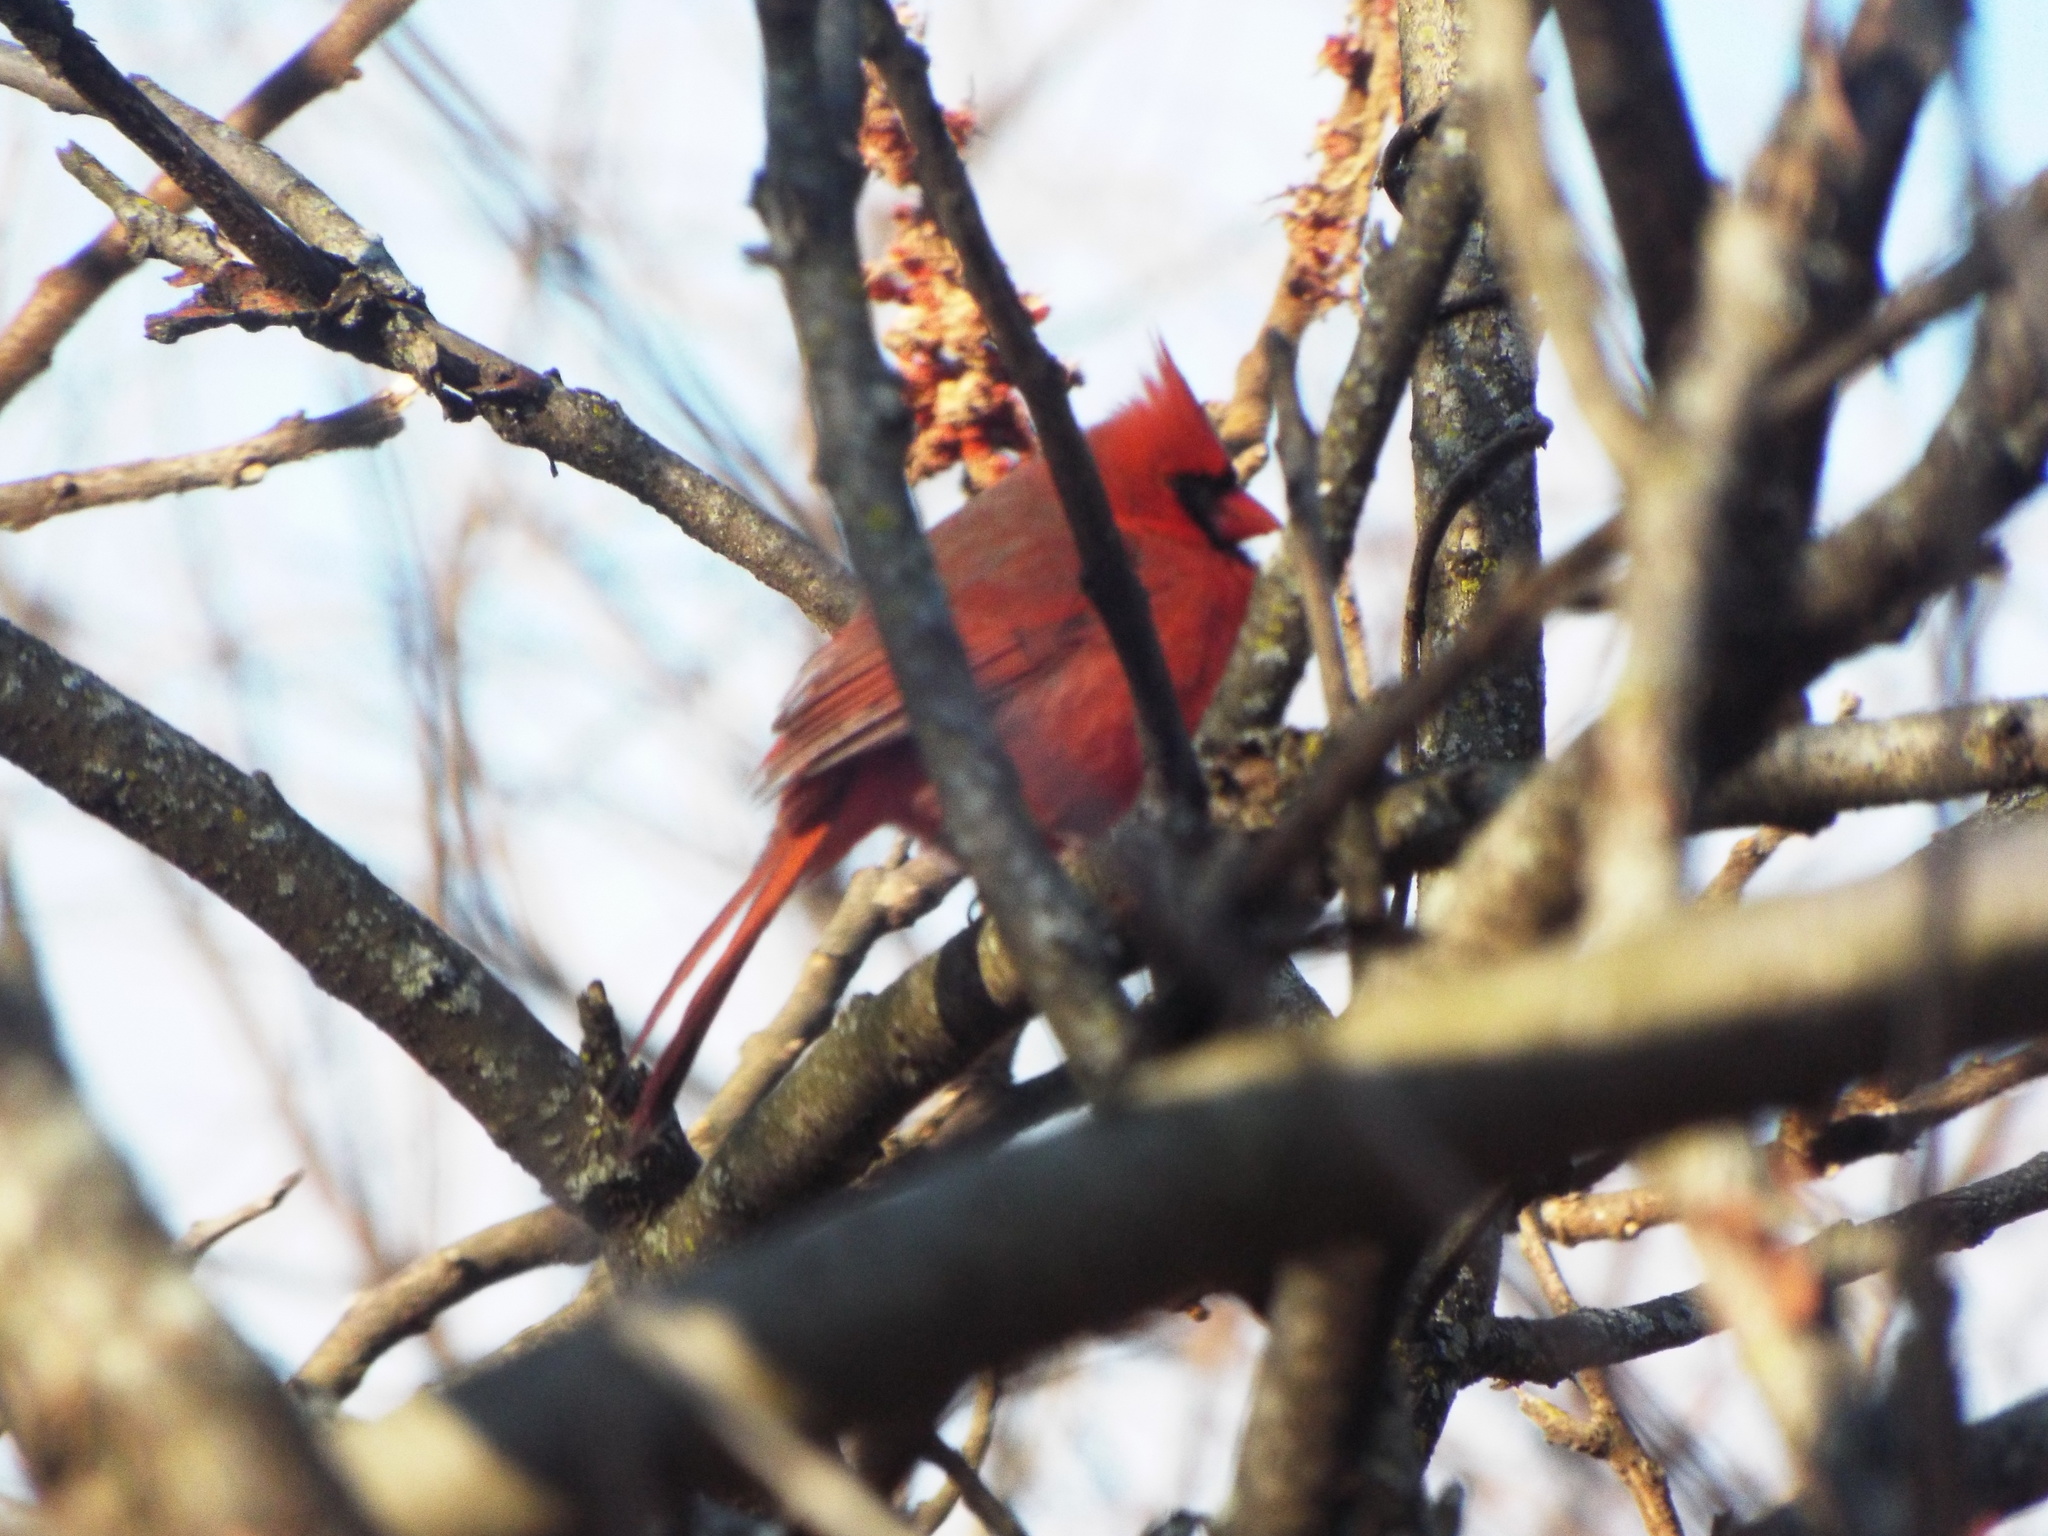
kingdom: Animalia
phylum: Chordata
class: Aves
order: Passeriformes
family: Cardinalidae
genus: Cardinalis
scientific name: Cardinalis cardinalis
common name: Northern cardinal
